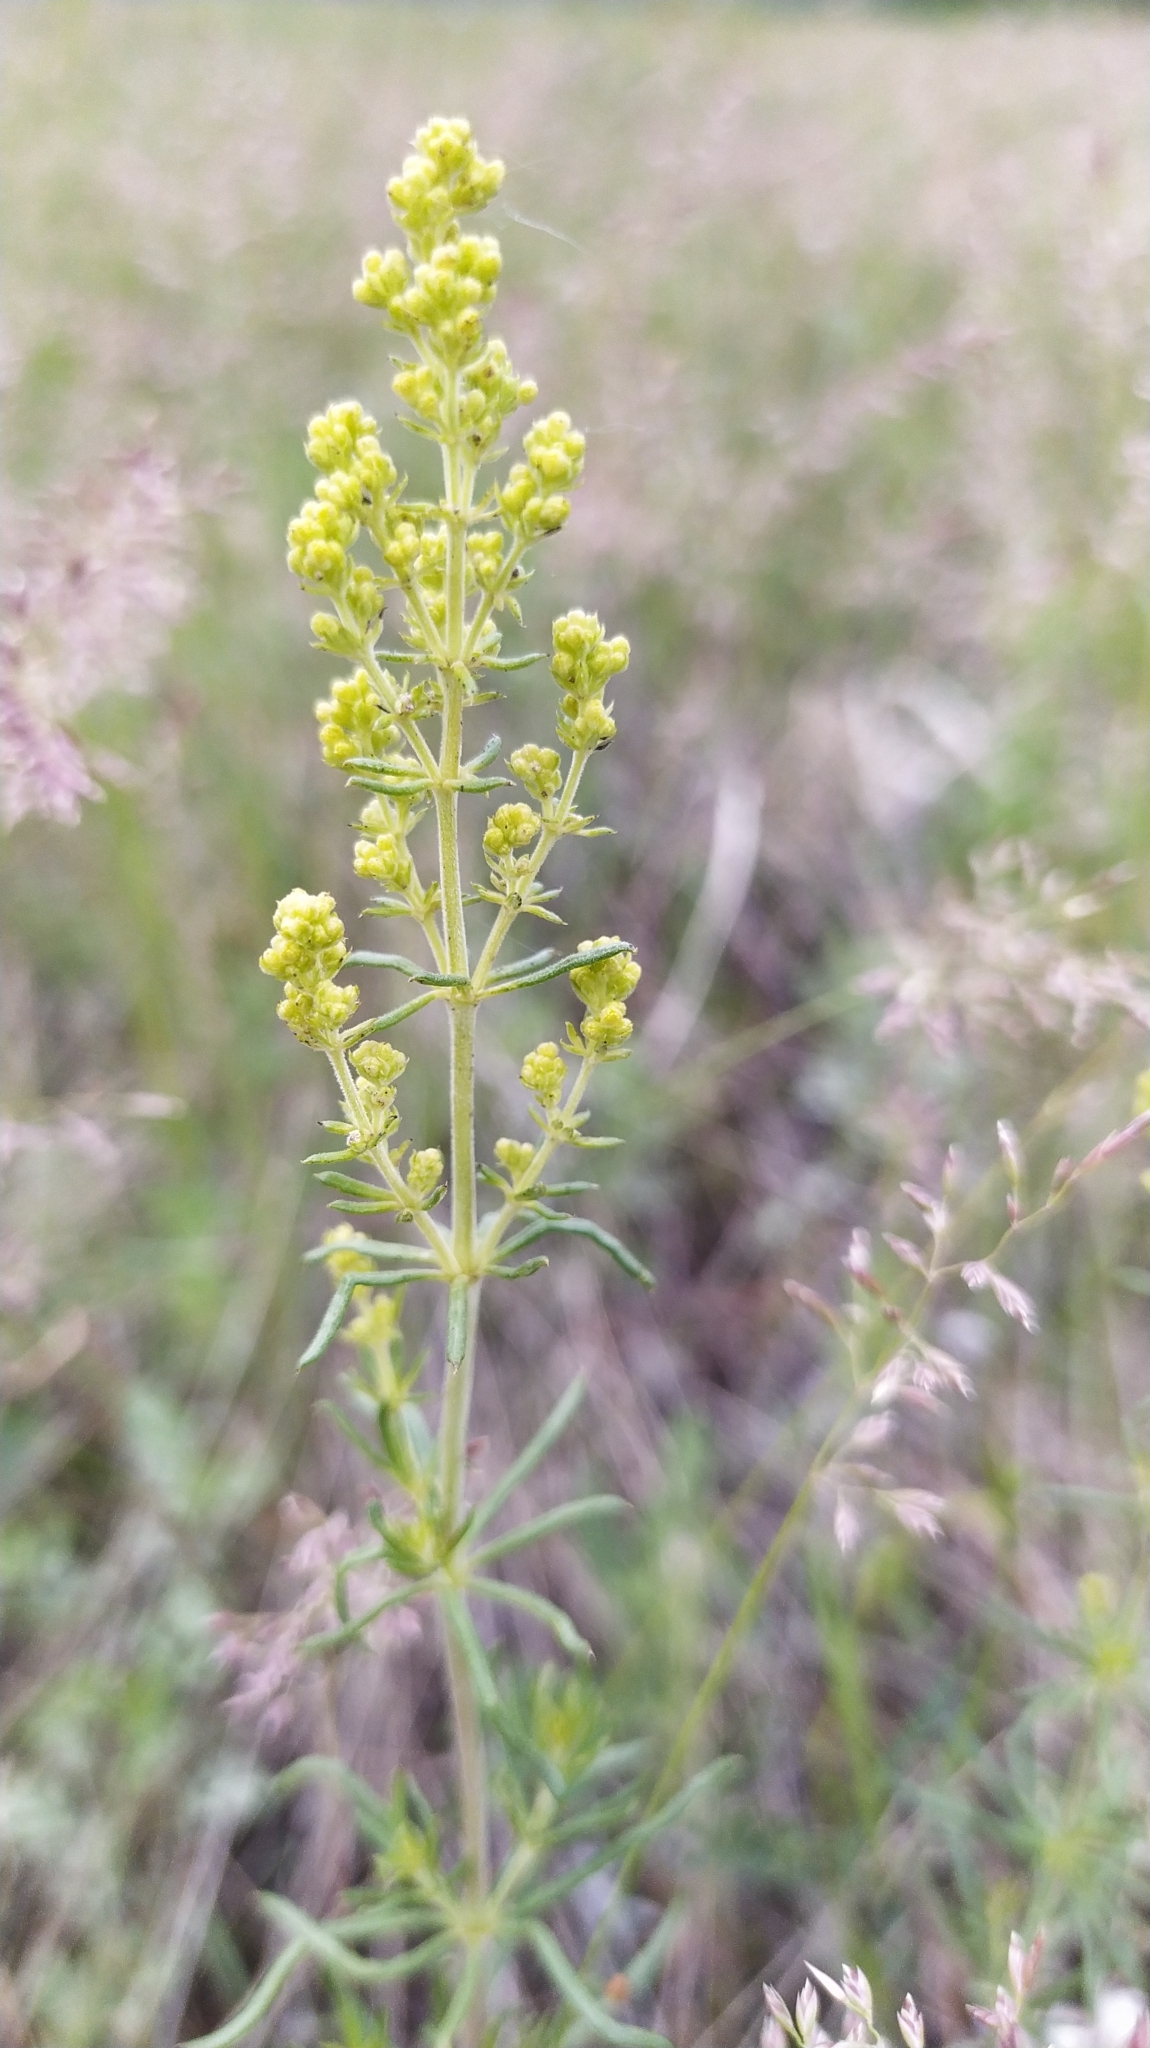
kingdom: Plantae
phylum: Tracheophyta
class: Magnoliopsida
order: Gentianales
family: Rubiaceae
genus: Galium
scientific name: Galium verum
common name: Lady's bedstraw
